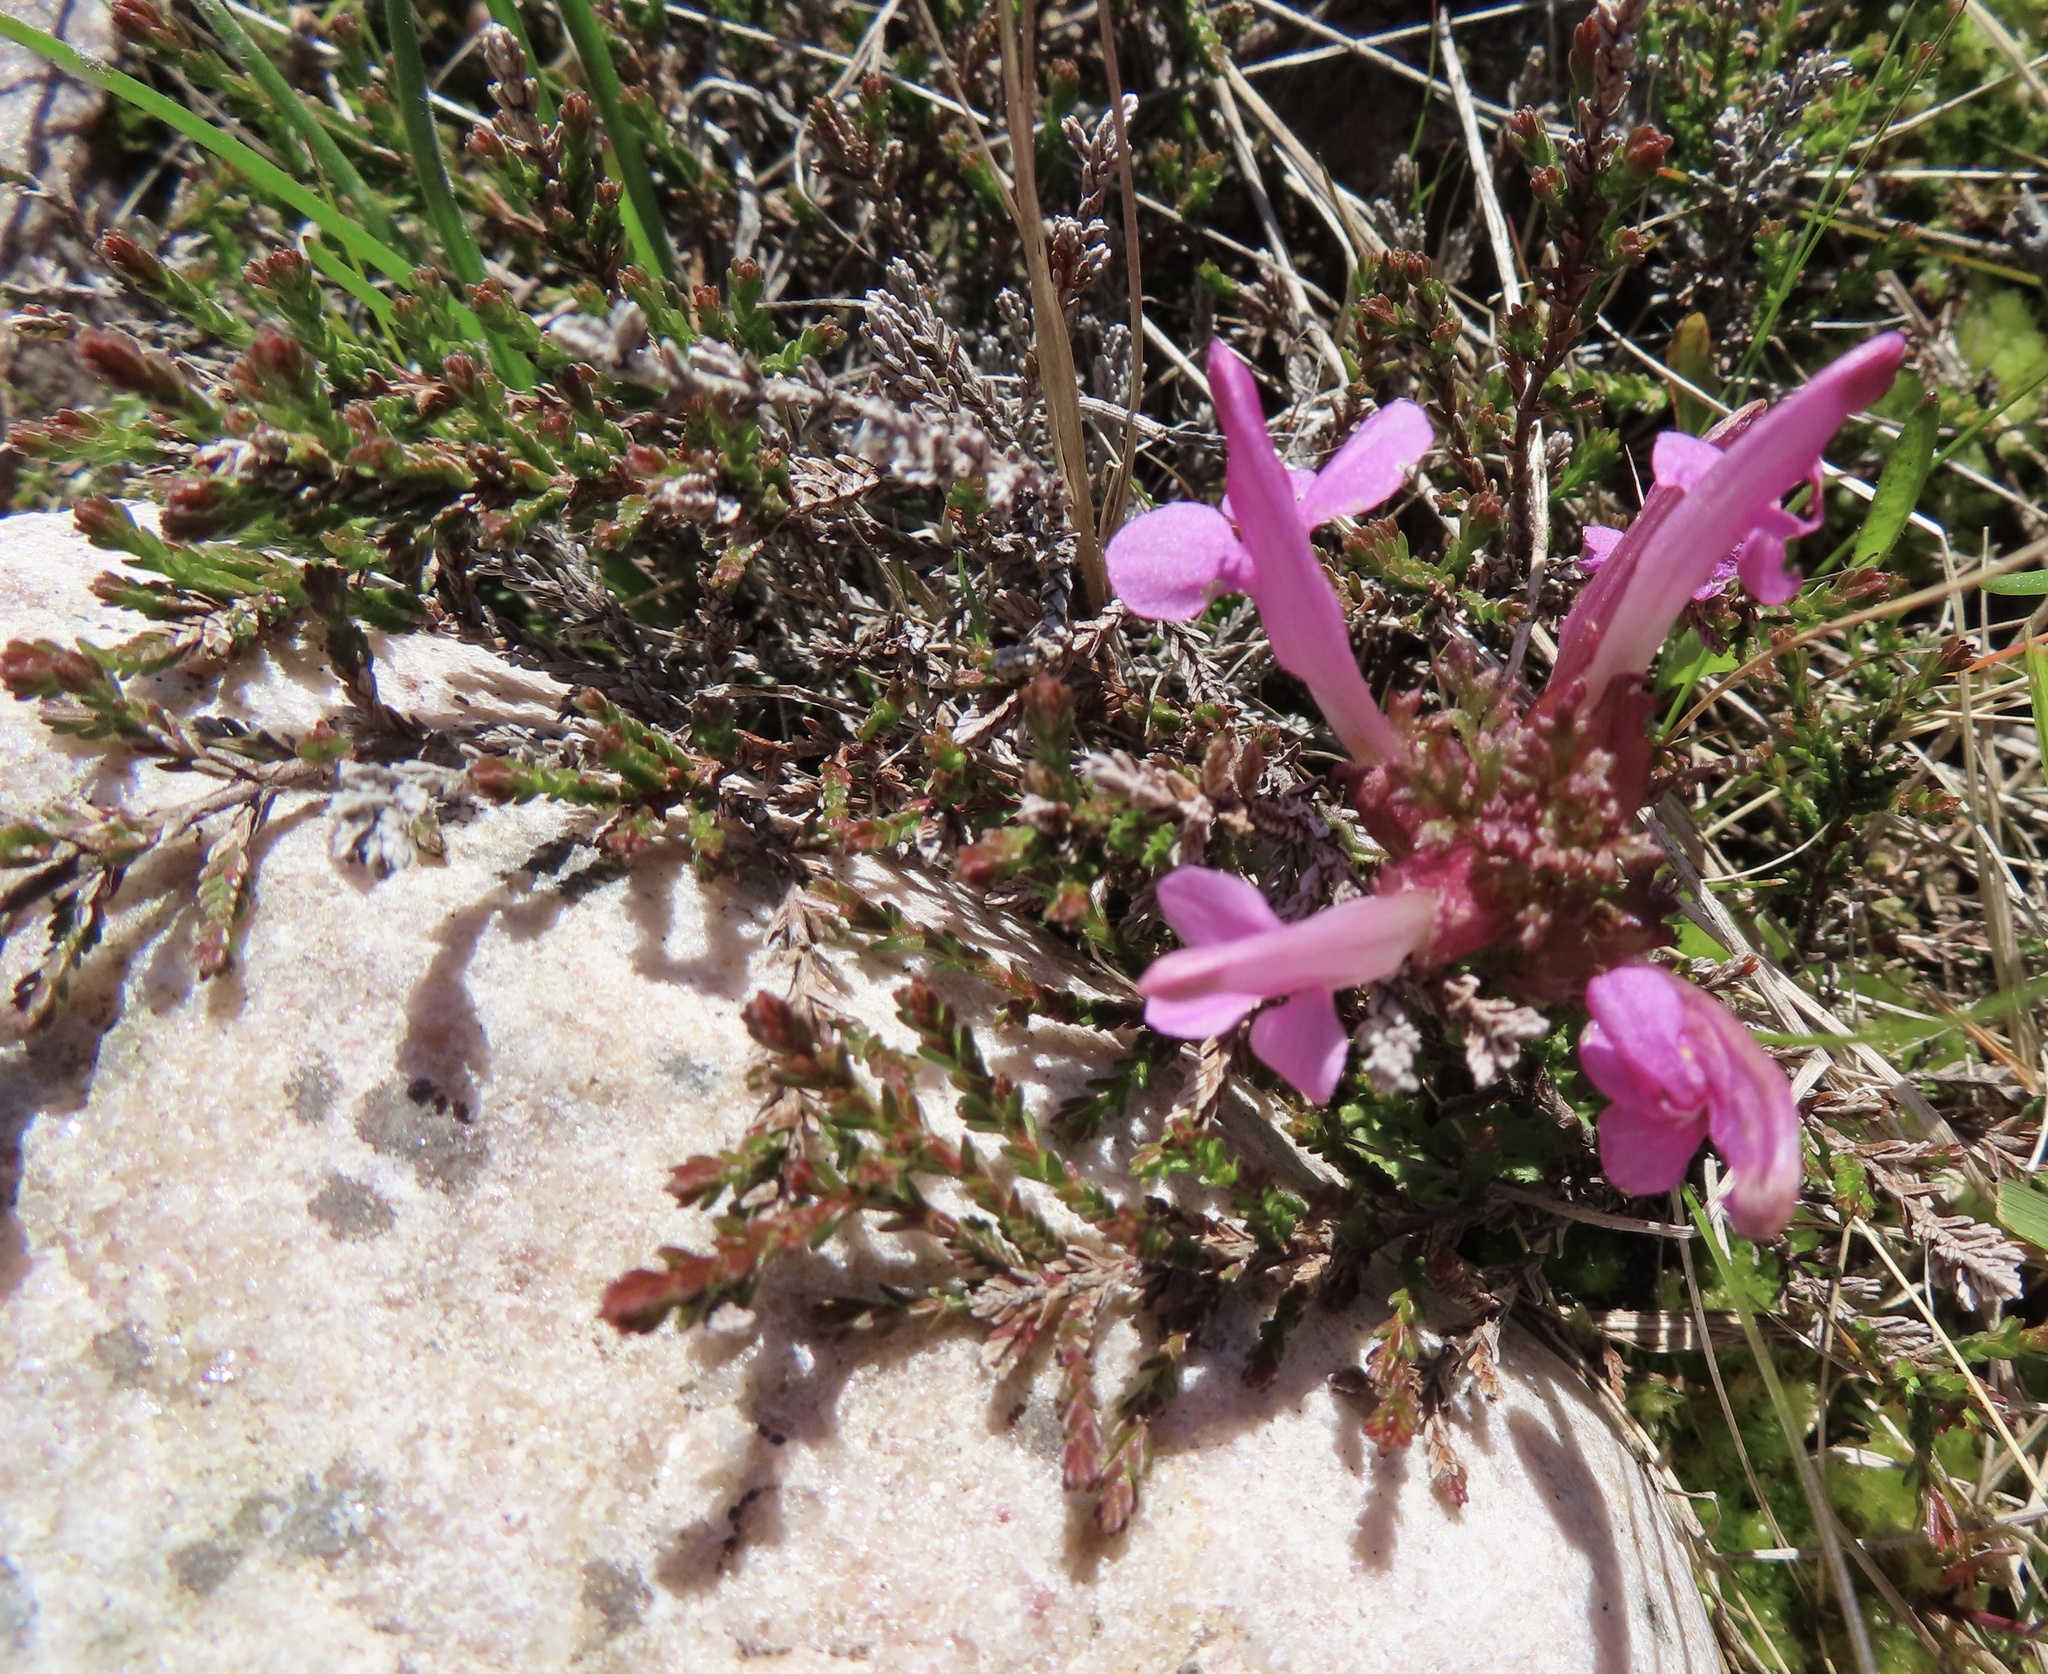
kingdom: Plantae
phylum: Tracheophyta
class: Magnoliopsida
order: Lamiales
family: Orobanchaceae
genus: Pedicularis
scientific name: Pedicularis sylvatica
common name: Lousewort
